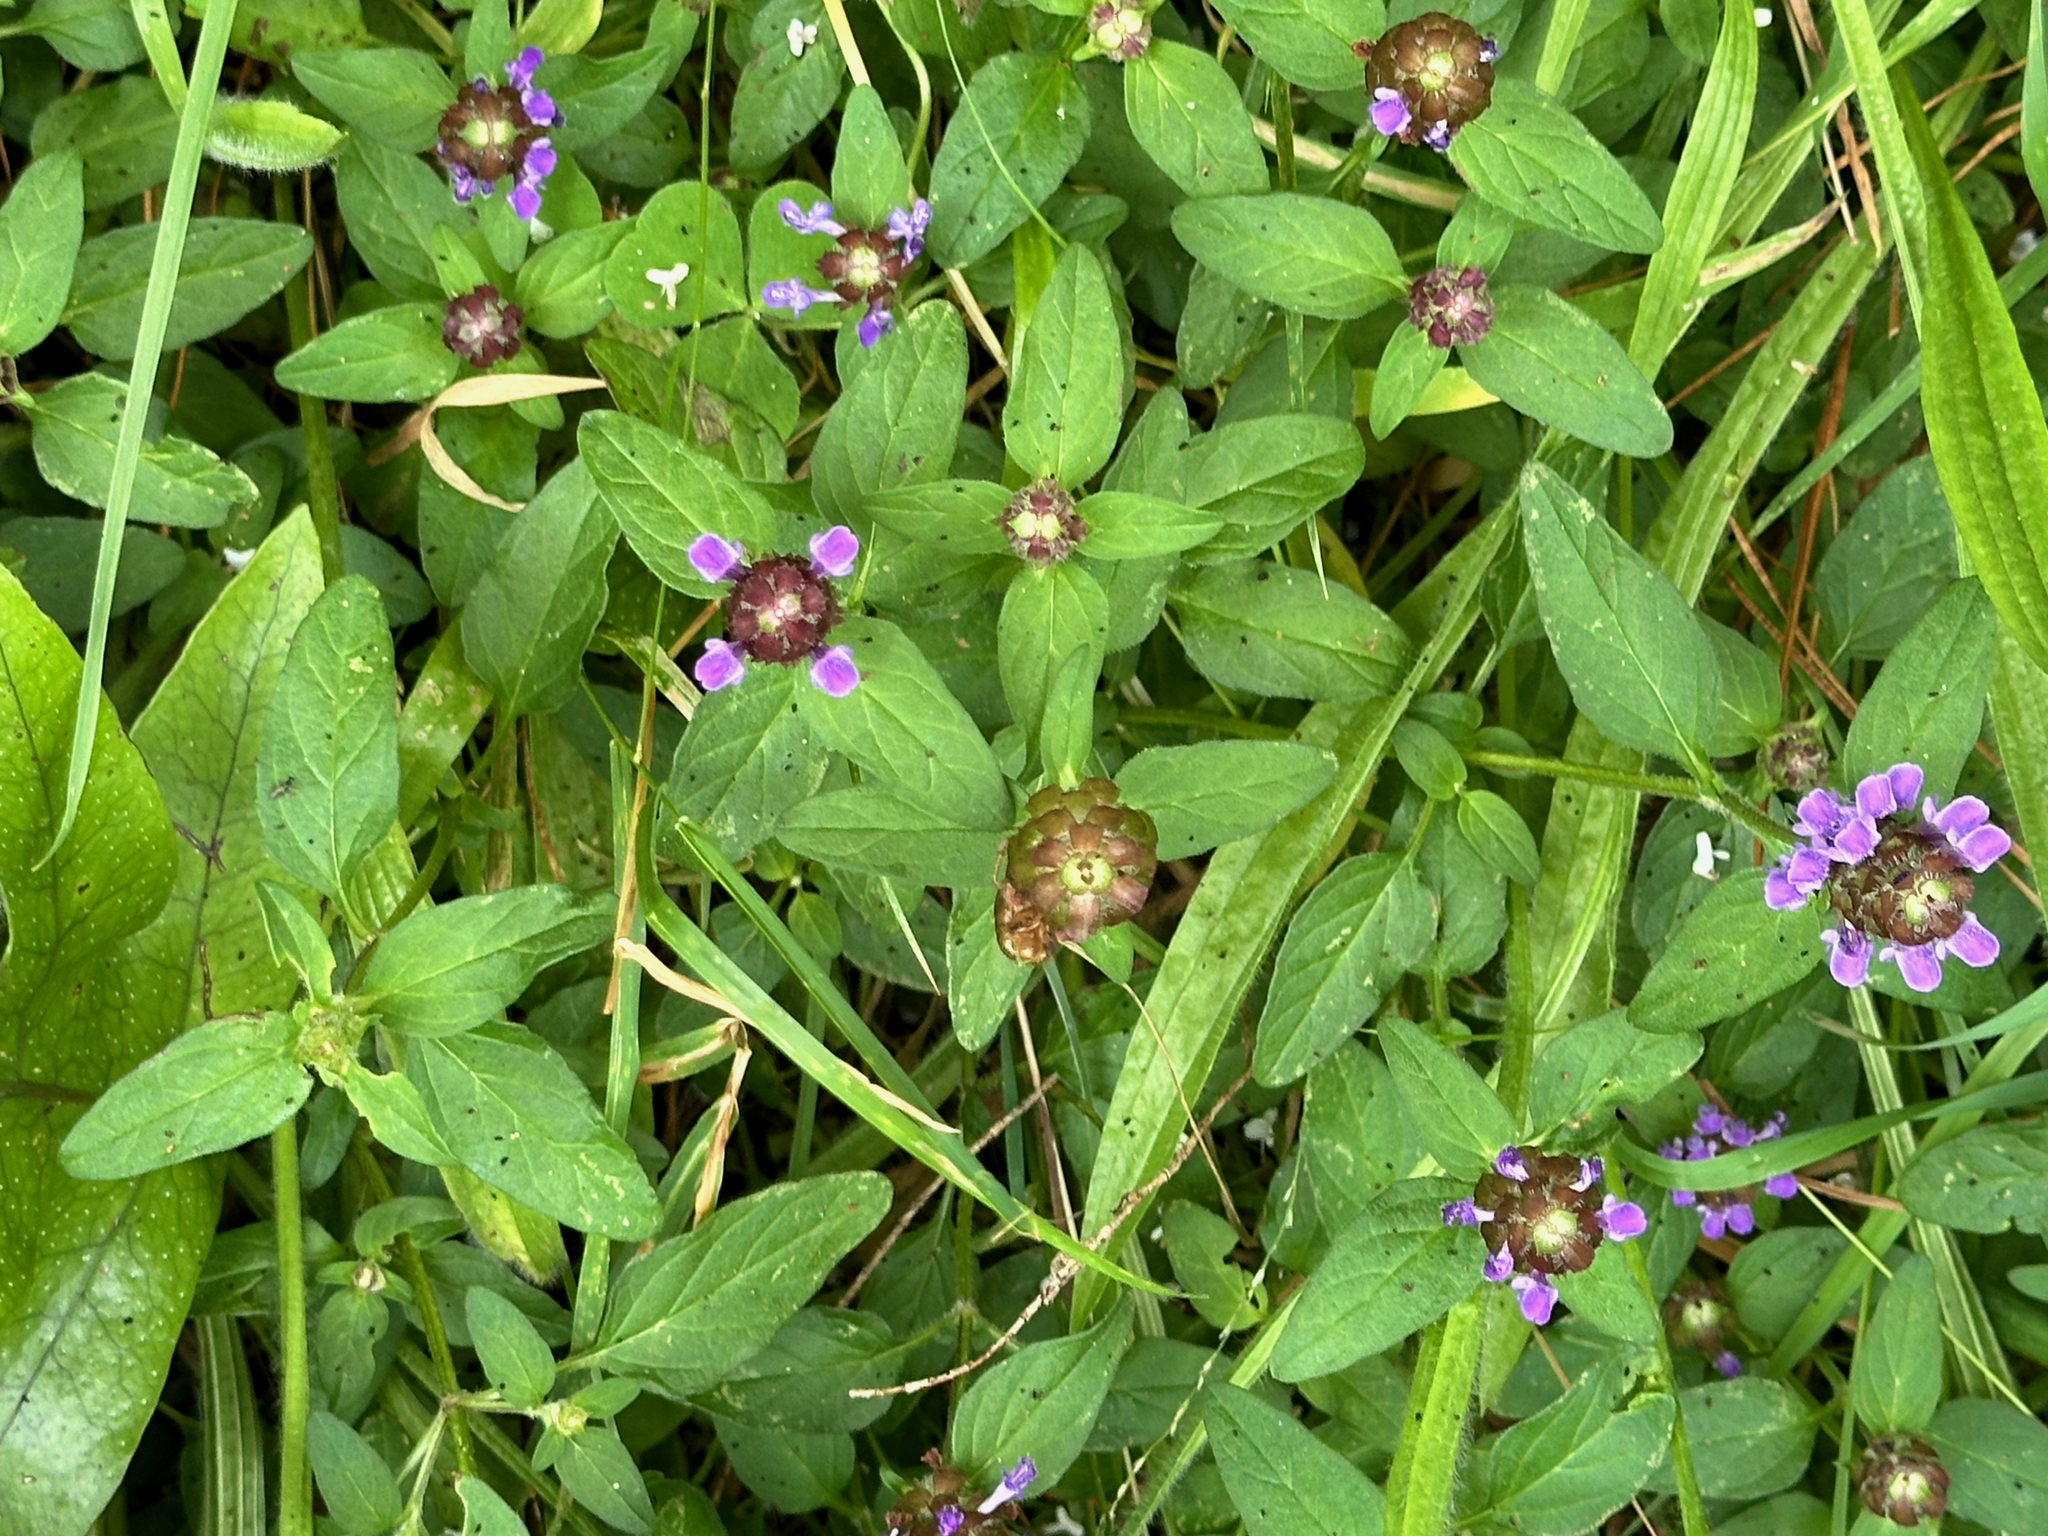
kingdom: Plantae
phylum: Tracheophyta
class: Magnoliopsida
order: Lamiales
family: Lamiaceae
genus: Prunella
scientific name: Prunella vulgaris
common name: Heal-all
